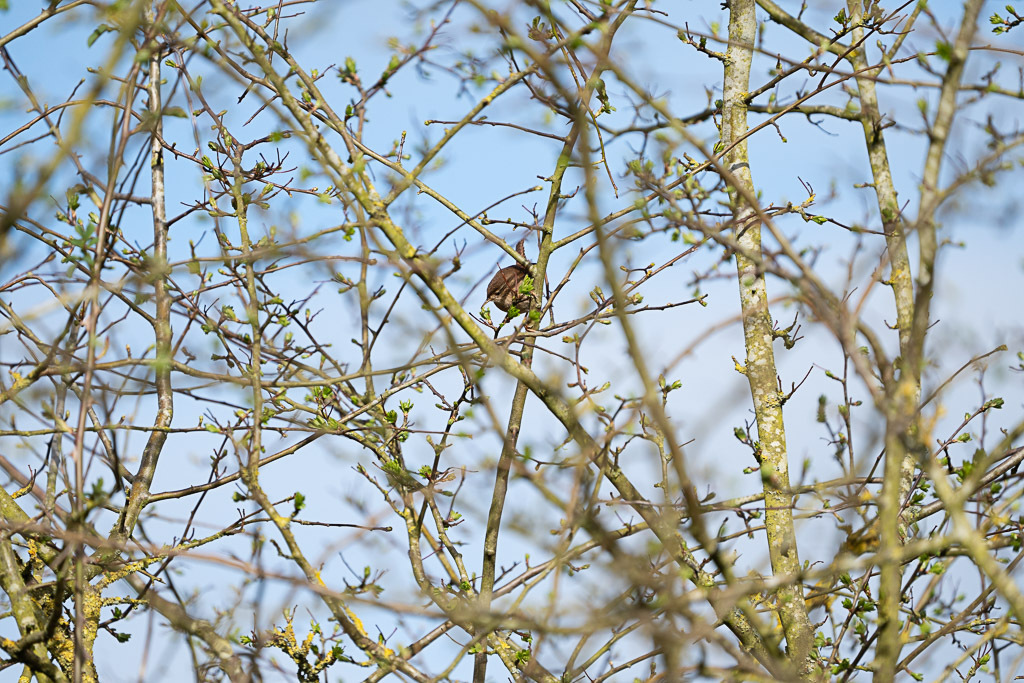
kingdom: Animalia
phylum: Chordata
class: Aves
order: Passeriformes
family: Troglodytidae
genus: Troglodytes
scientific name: Troglodytes troglodytes
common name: Eurasian wren
